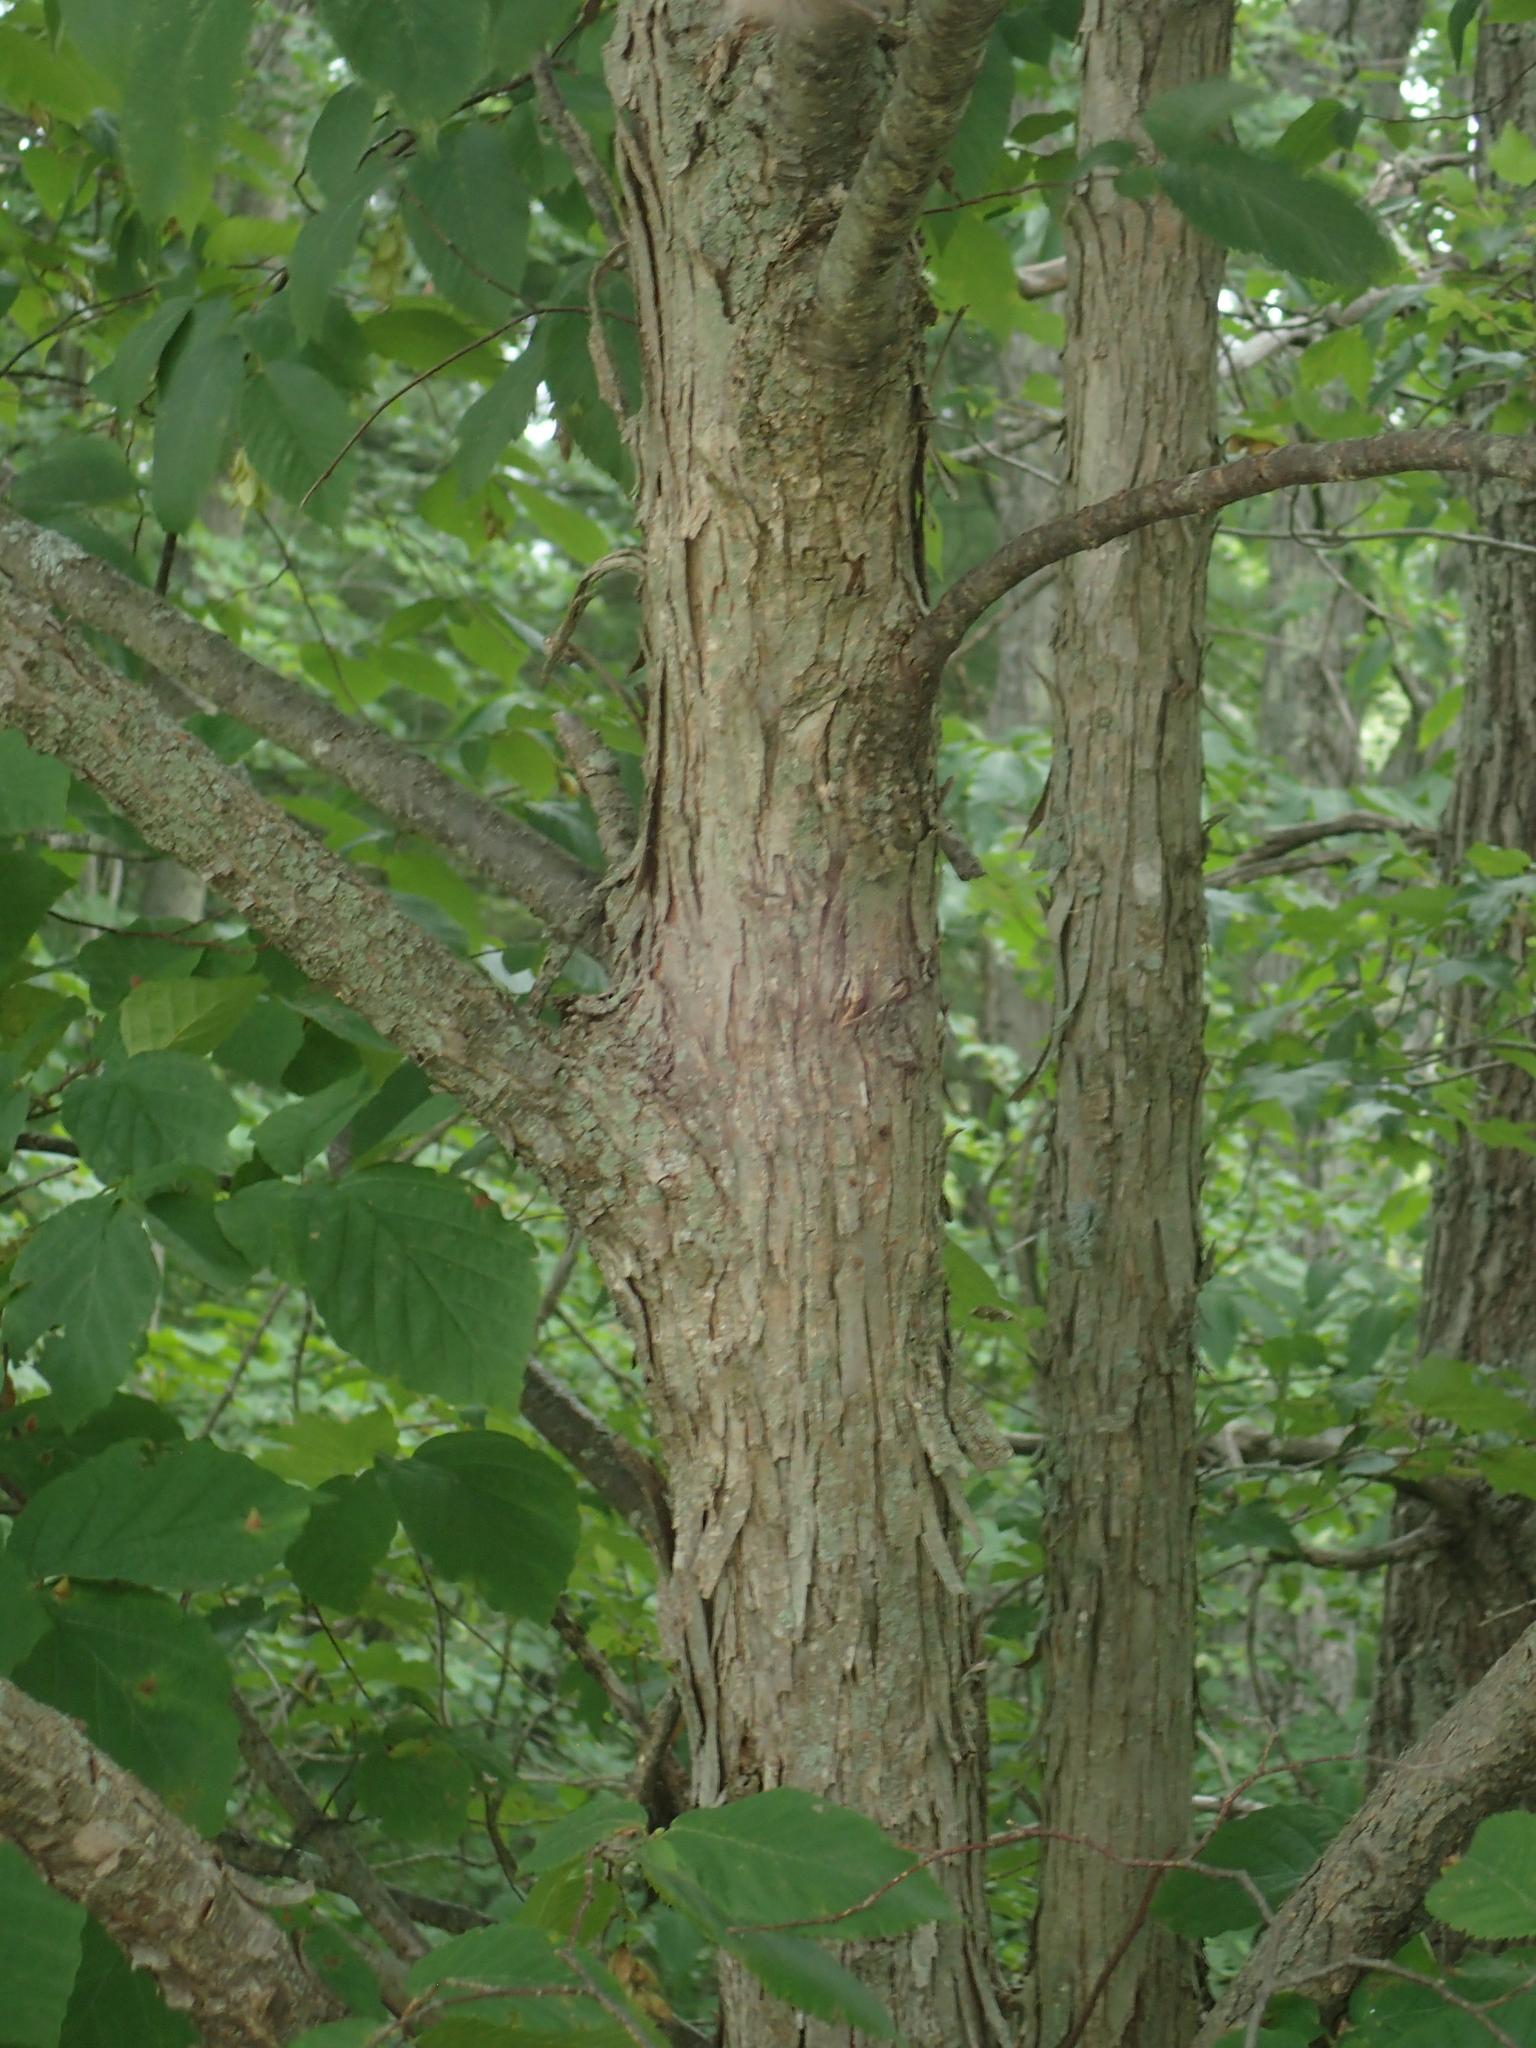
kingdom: Plantae
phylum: Tracheophyta
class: Magnoliopsida
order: Fagales
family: Betulaceae
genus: Ostrya
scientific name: Ostrya virginiana
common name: Ironwood
